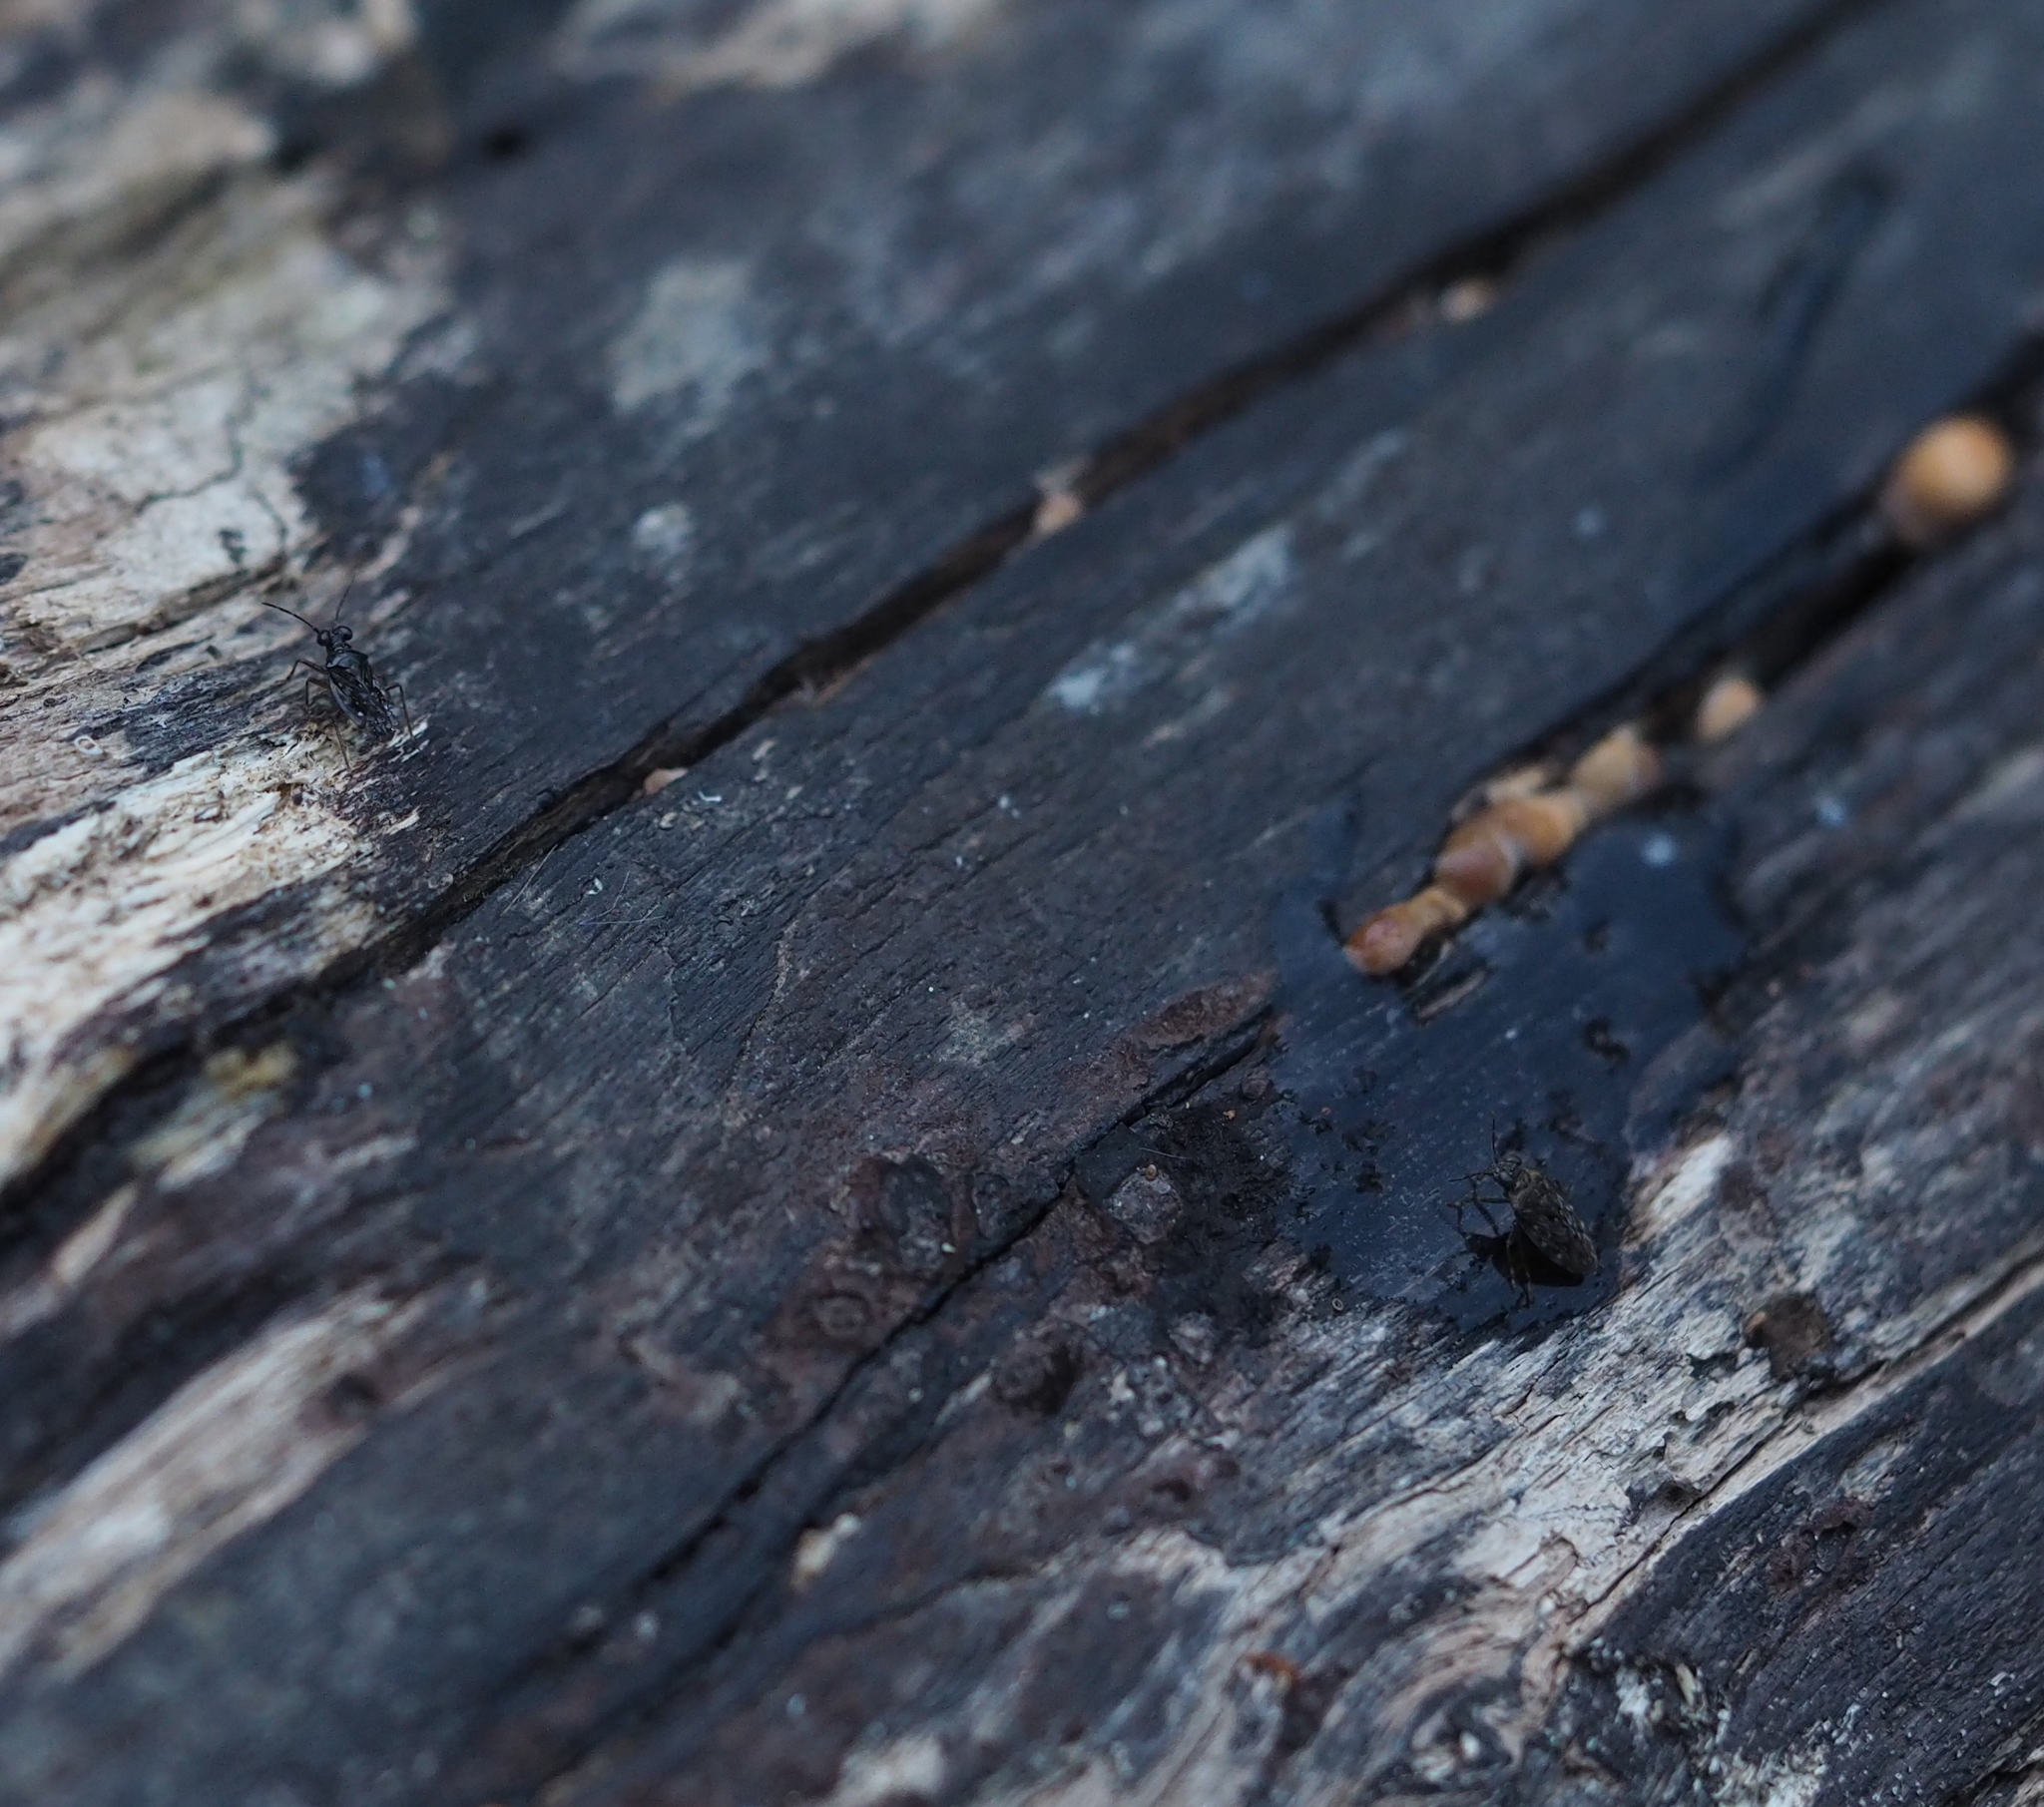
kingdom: Animalia
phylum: Arthropoda
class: Insecta
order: Hemiptera
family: Saldidae
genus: Chartoscirta
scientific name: Chartoscirta cincta
